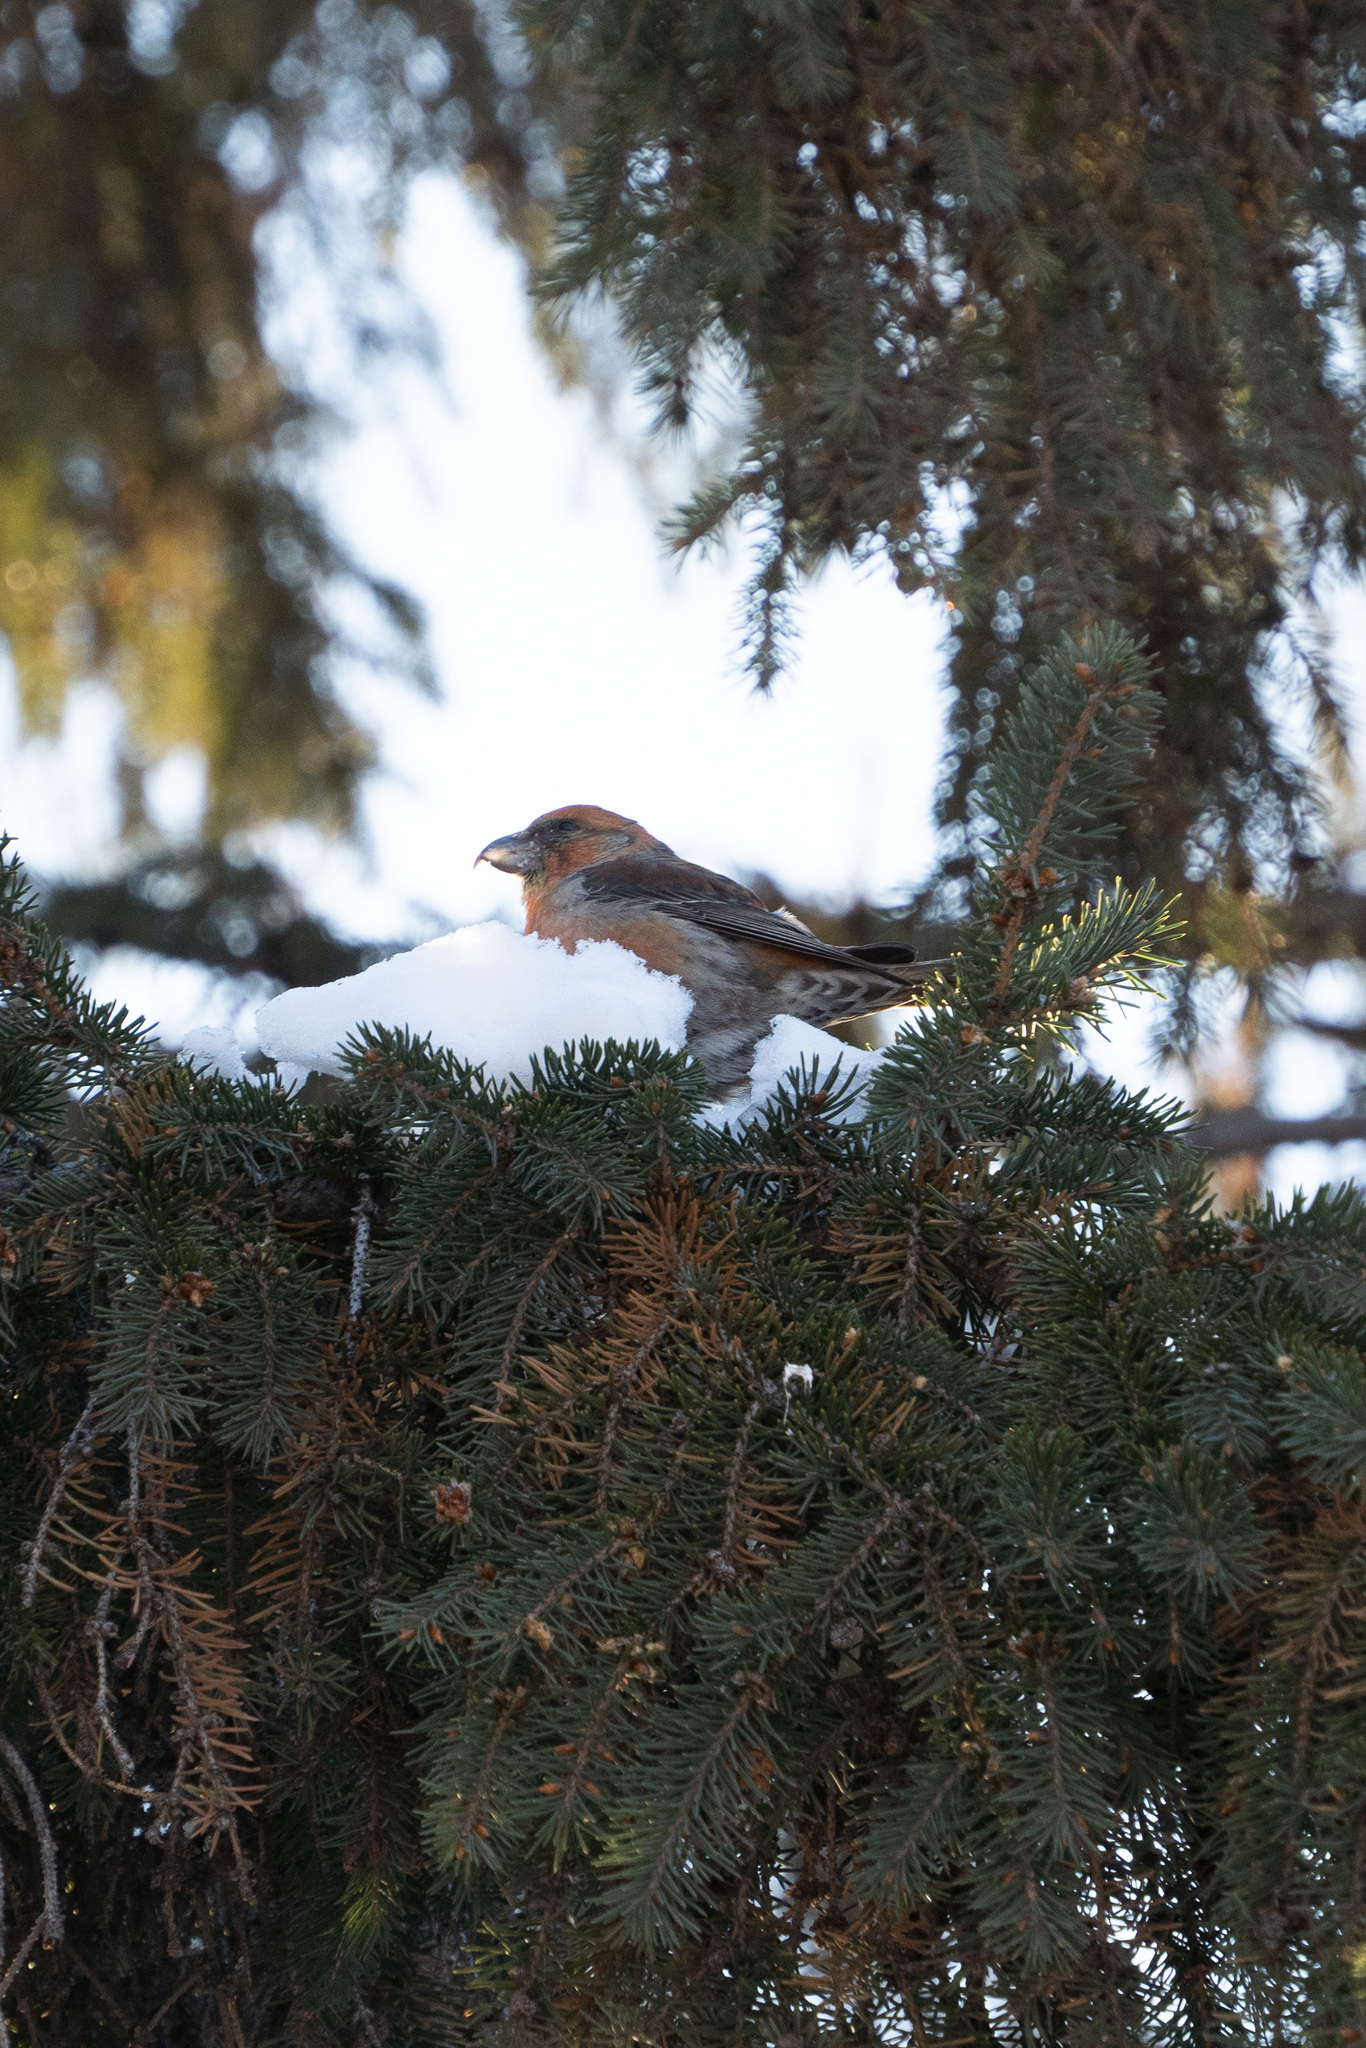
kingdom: Animalia
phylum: Chordata
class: Aves
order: Passeriformes
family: Fringillidae
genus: Loxia
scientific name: Loxia curvirostra
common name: Red crossbill
